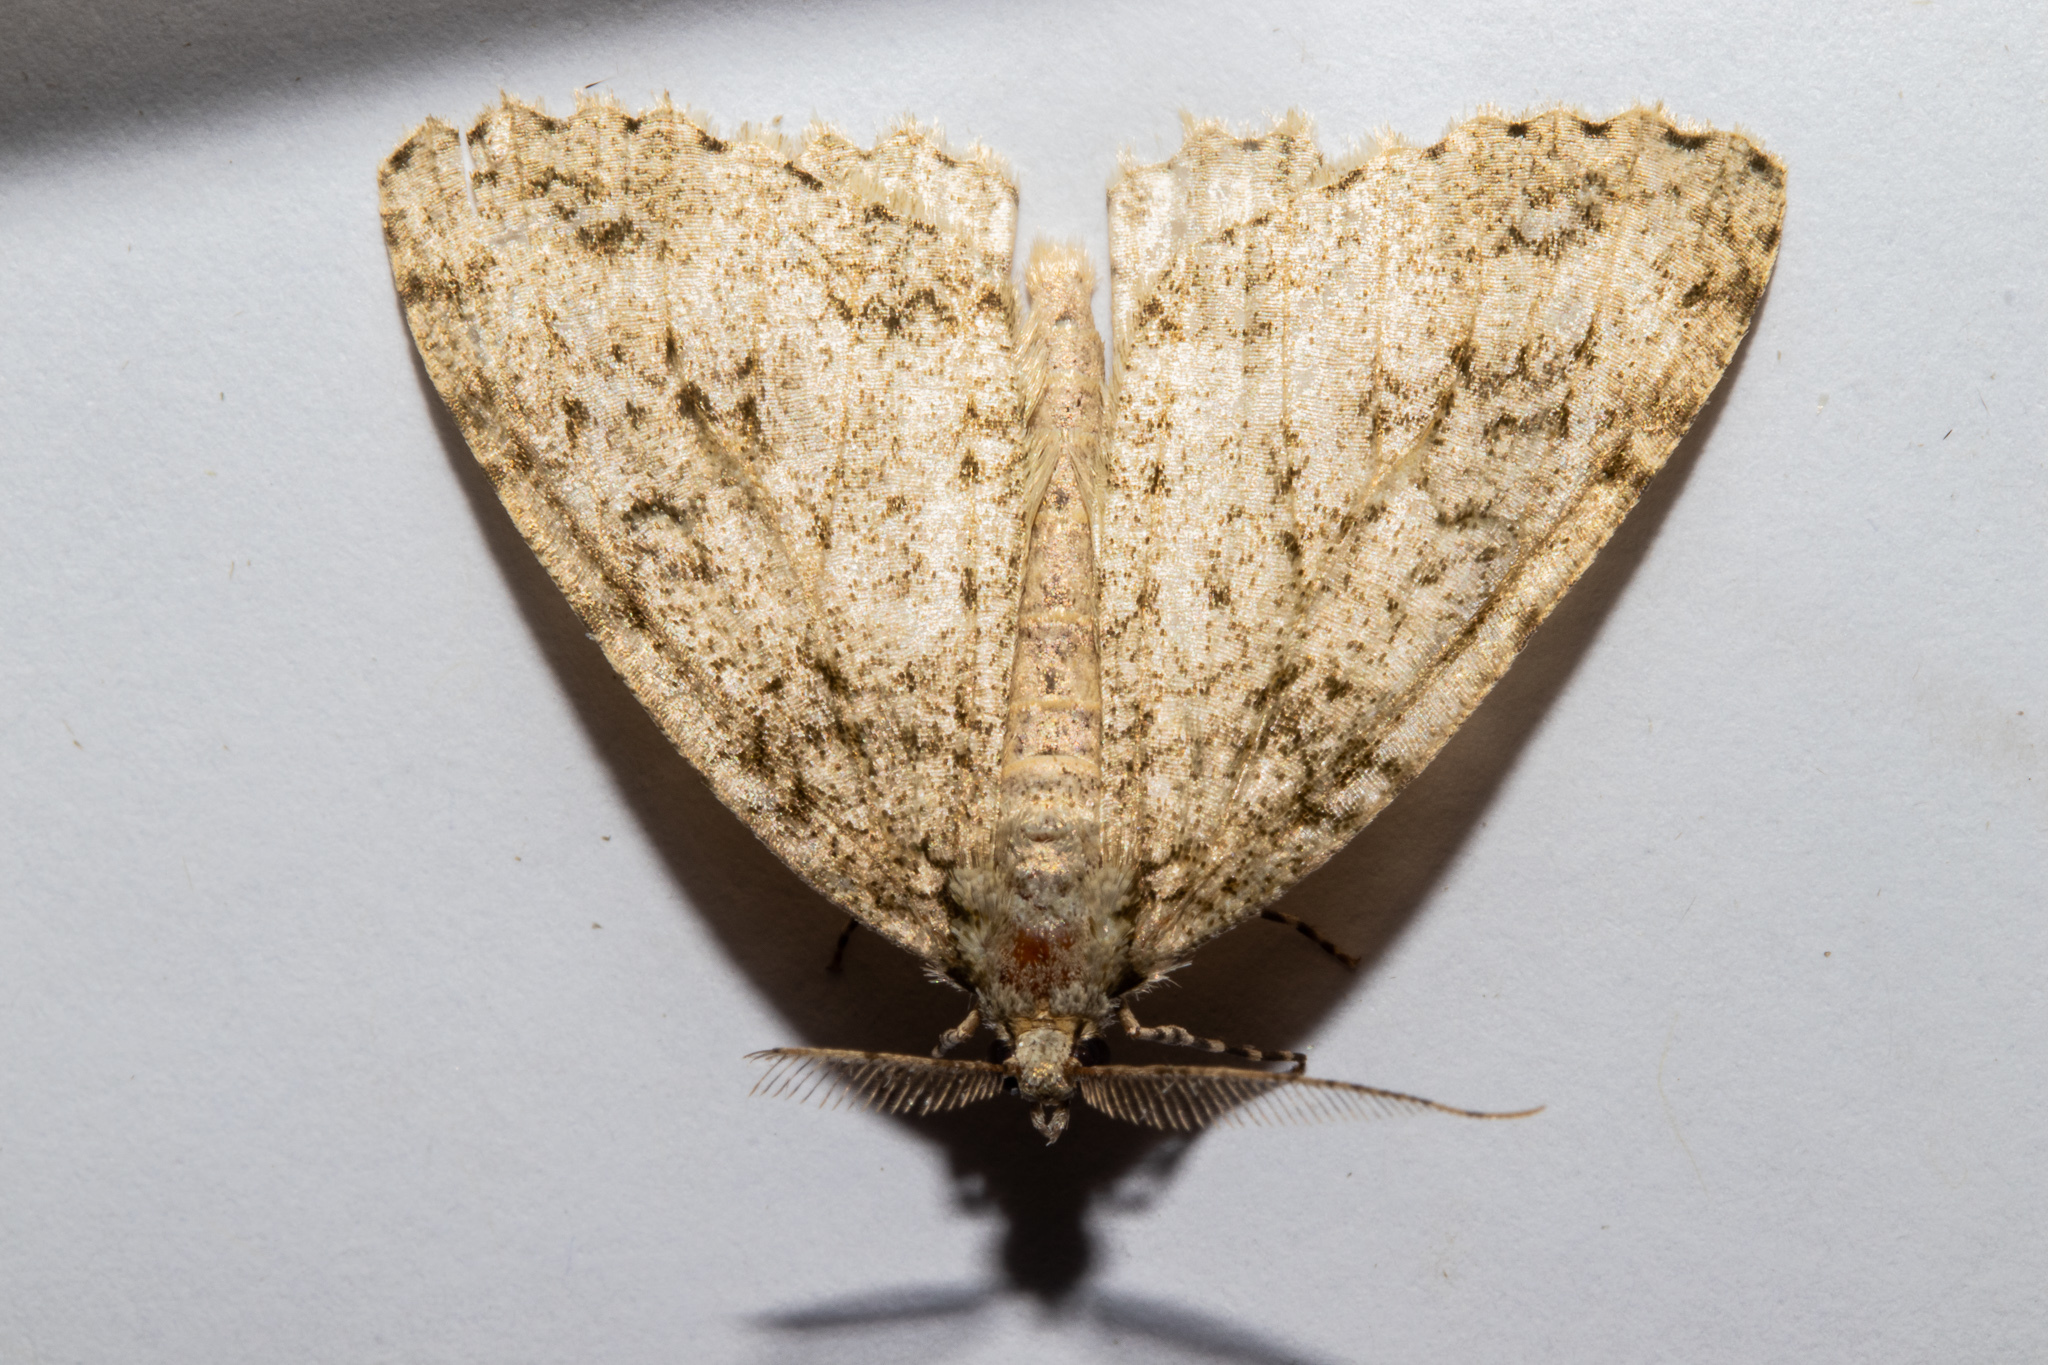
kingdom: Animalia
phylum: Arthropoda
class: Insecta
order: Lepidoptera
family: Geometridae
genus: Pseudocoremia
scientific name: Pseudocoremia rudisata
